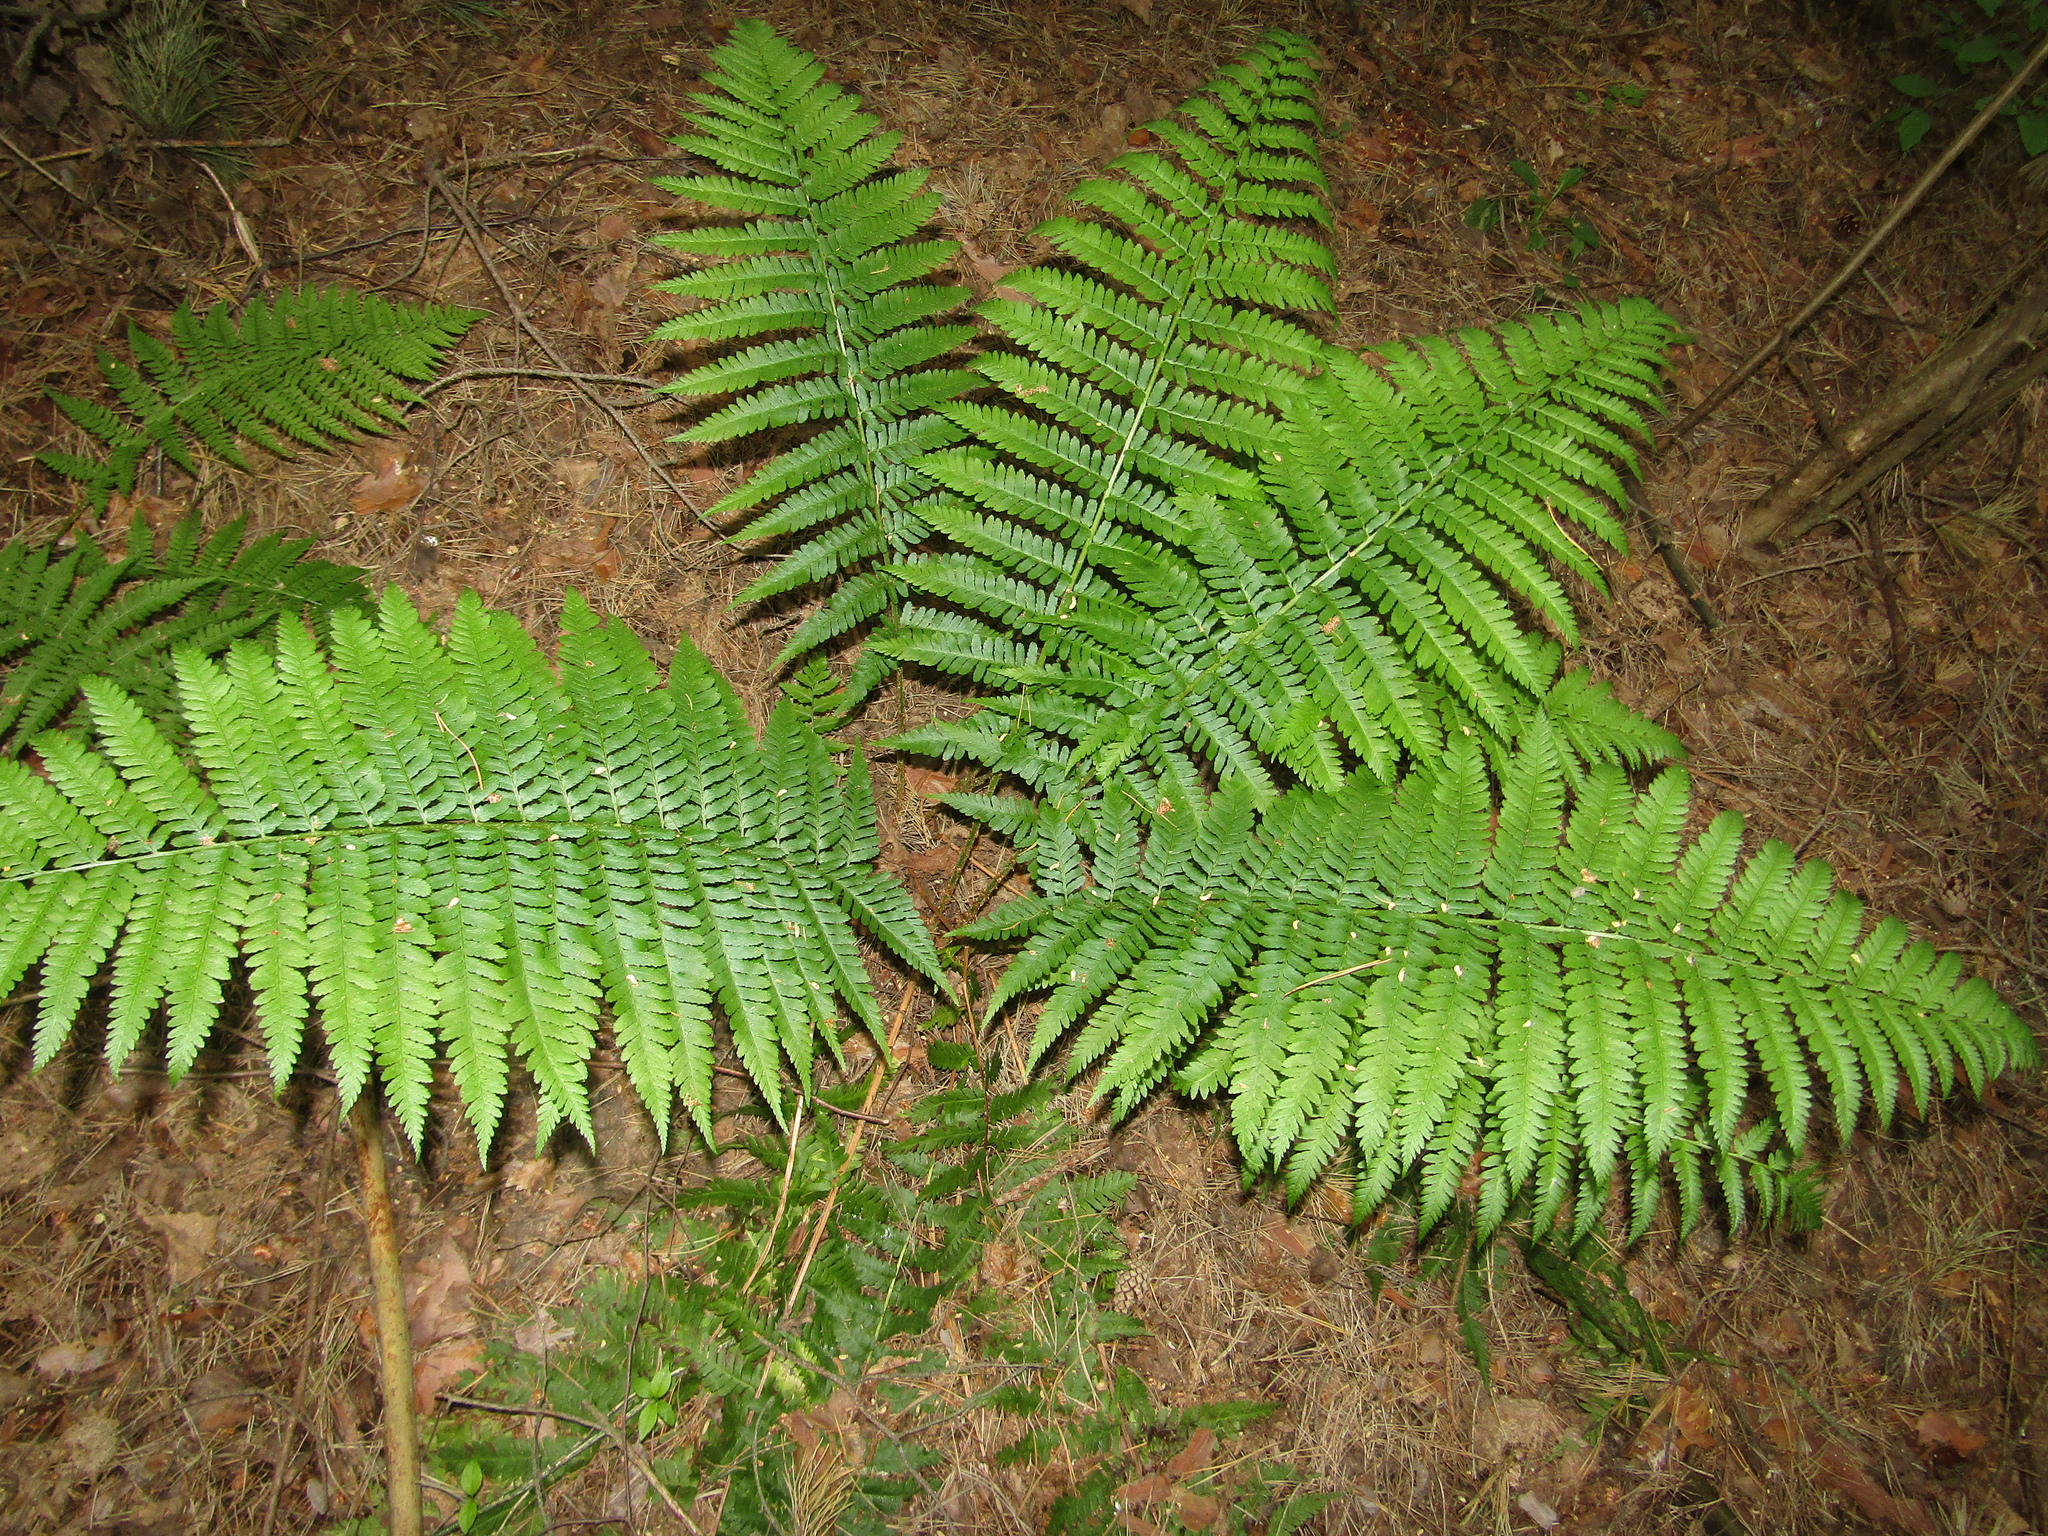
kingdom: Plantae
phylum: Tracheophyta
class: Polypodiopsida
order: Polypodiales
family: Dryopteridaceae
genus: Dryopteris
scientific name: Dryopteris filix-mas
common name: Male fern
